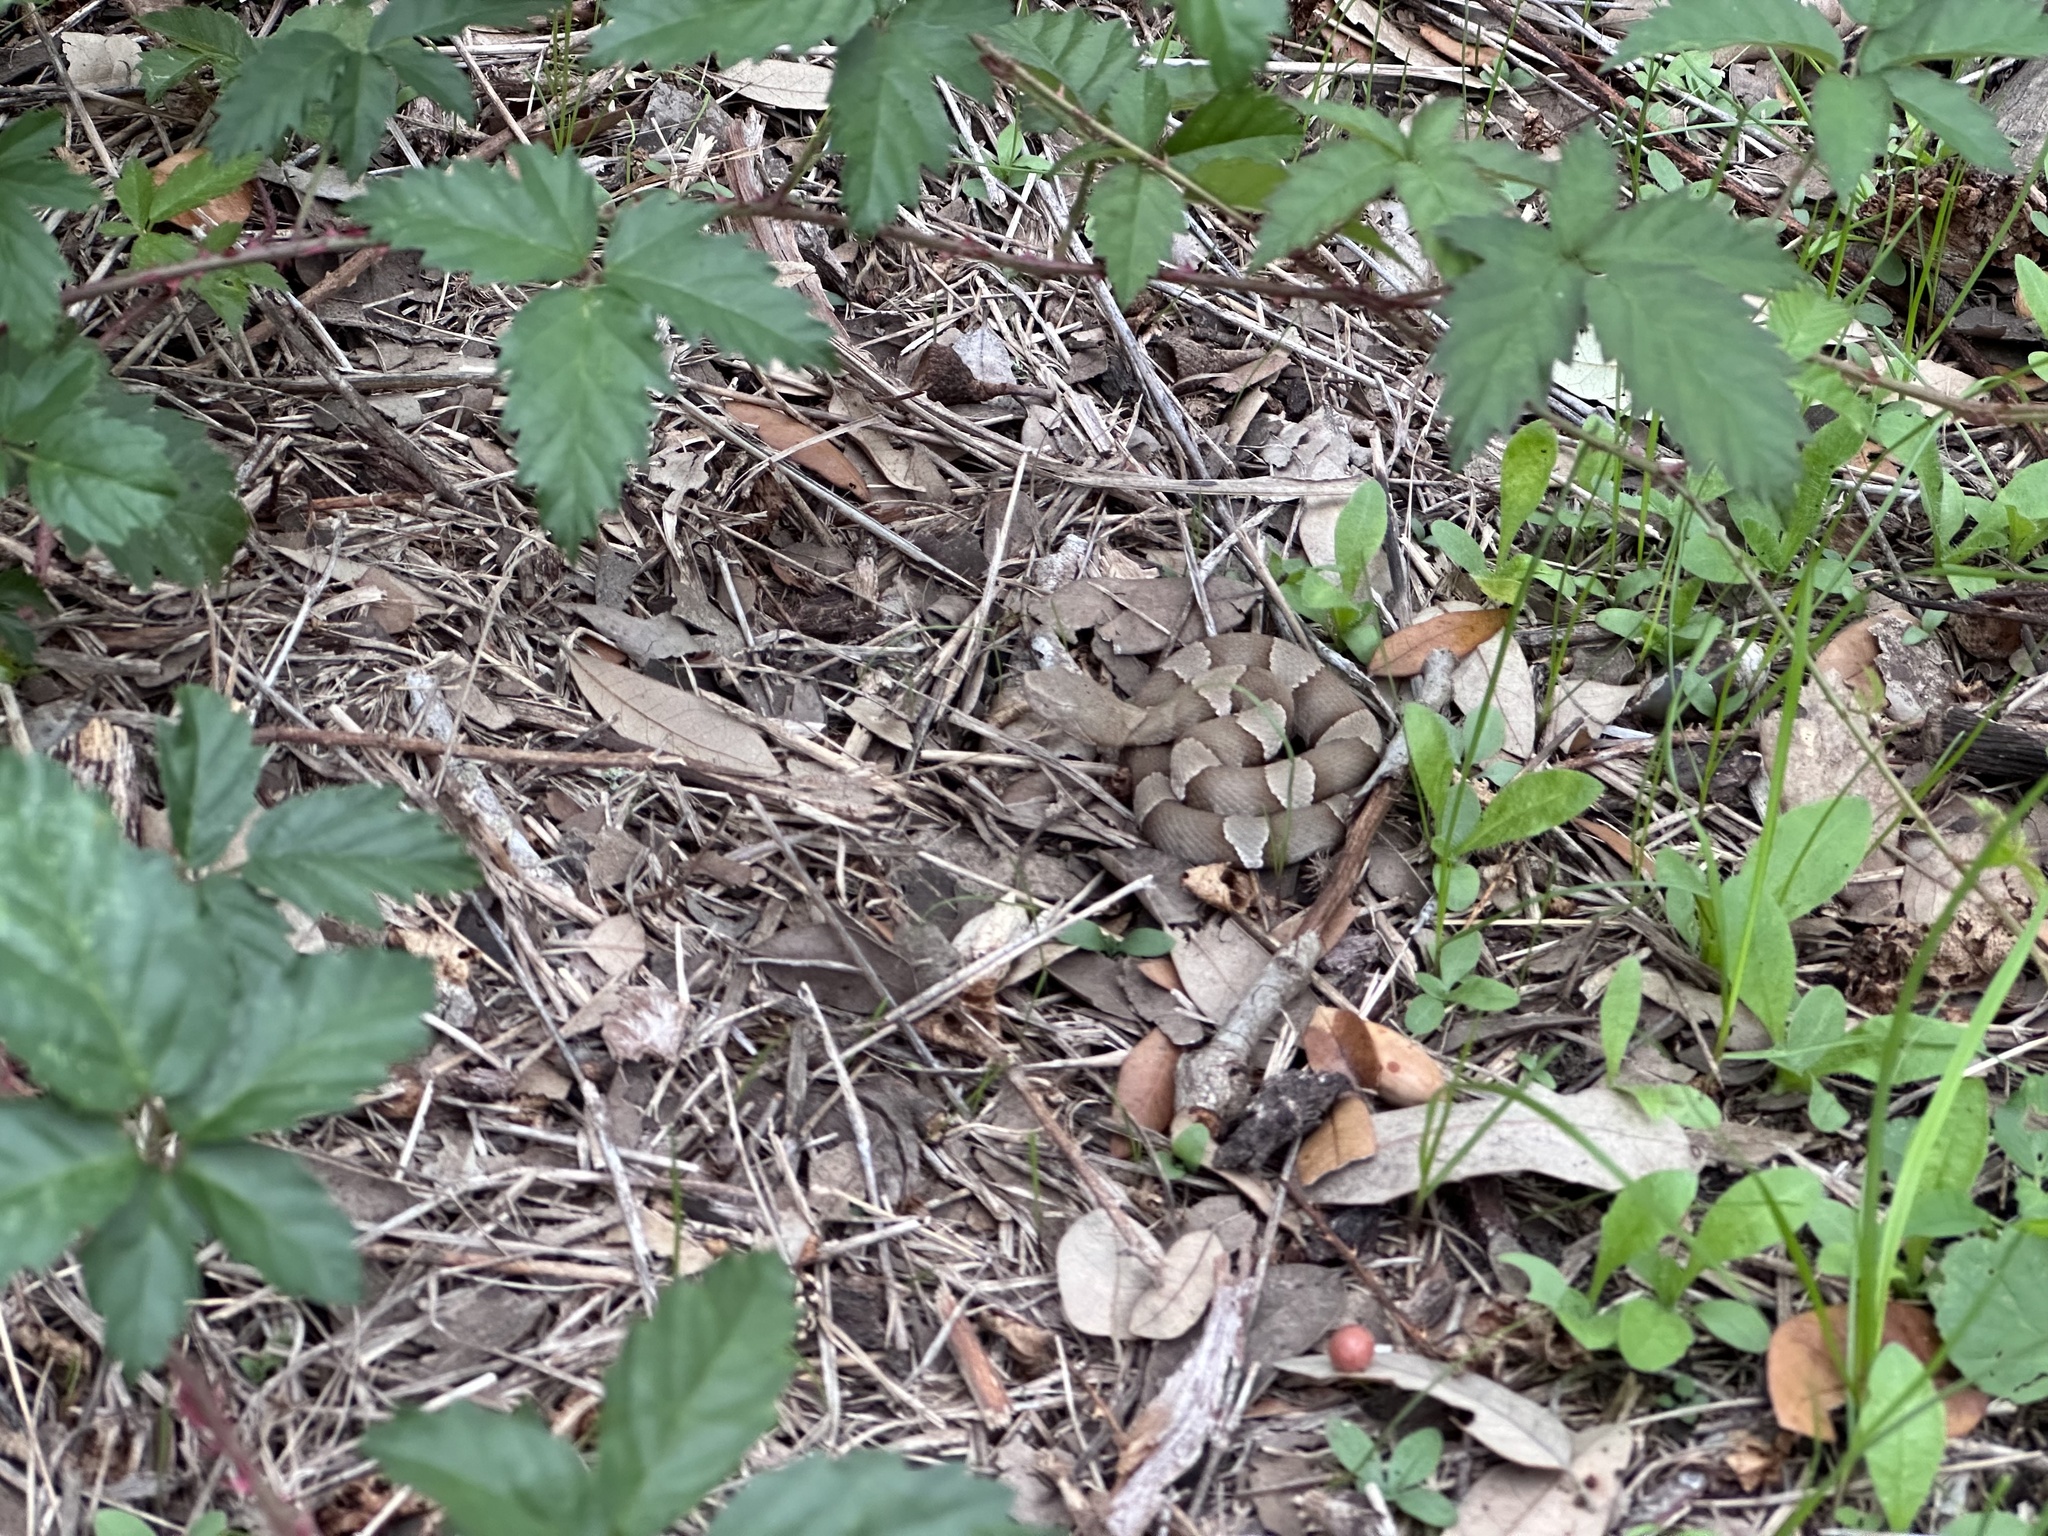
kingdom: Animalia
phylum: Chordata
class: Squamata
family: Viperidae
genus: Agkistrodon
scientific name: Agkistrodon laticinctus
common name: Broad-banded copperhead
